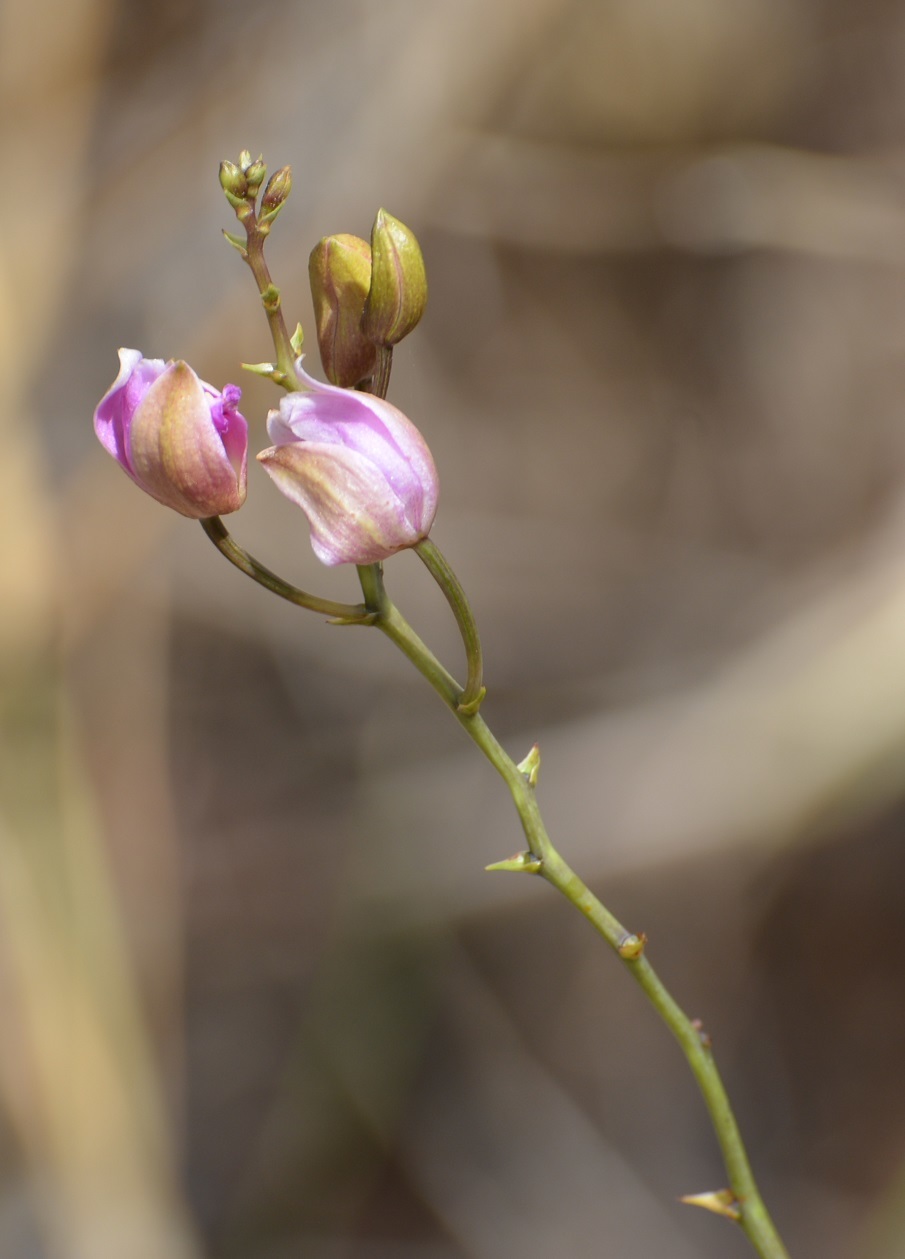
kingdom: Plantae
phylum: Tracheophyta
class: Liliopsida
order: Asparagales
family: Orchidaceae
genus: Bletia
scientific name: Bletia purpurea
